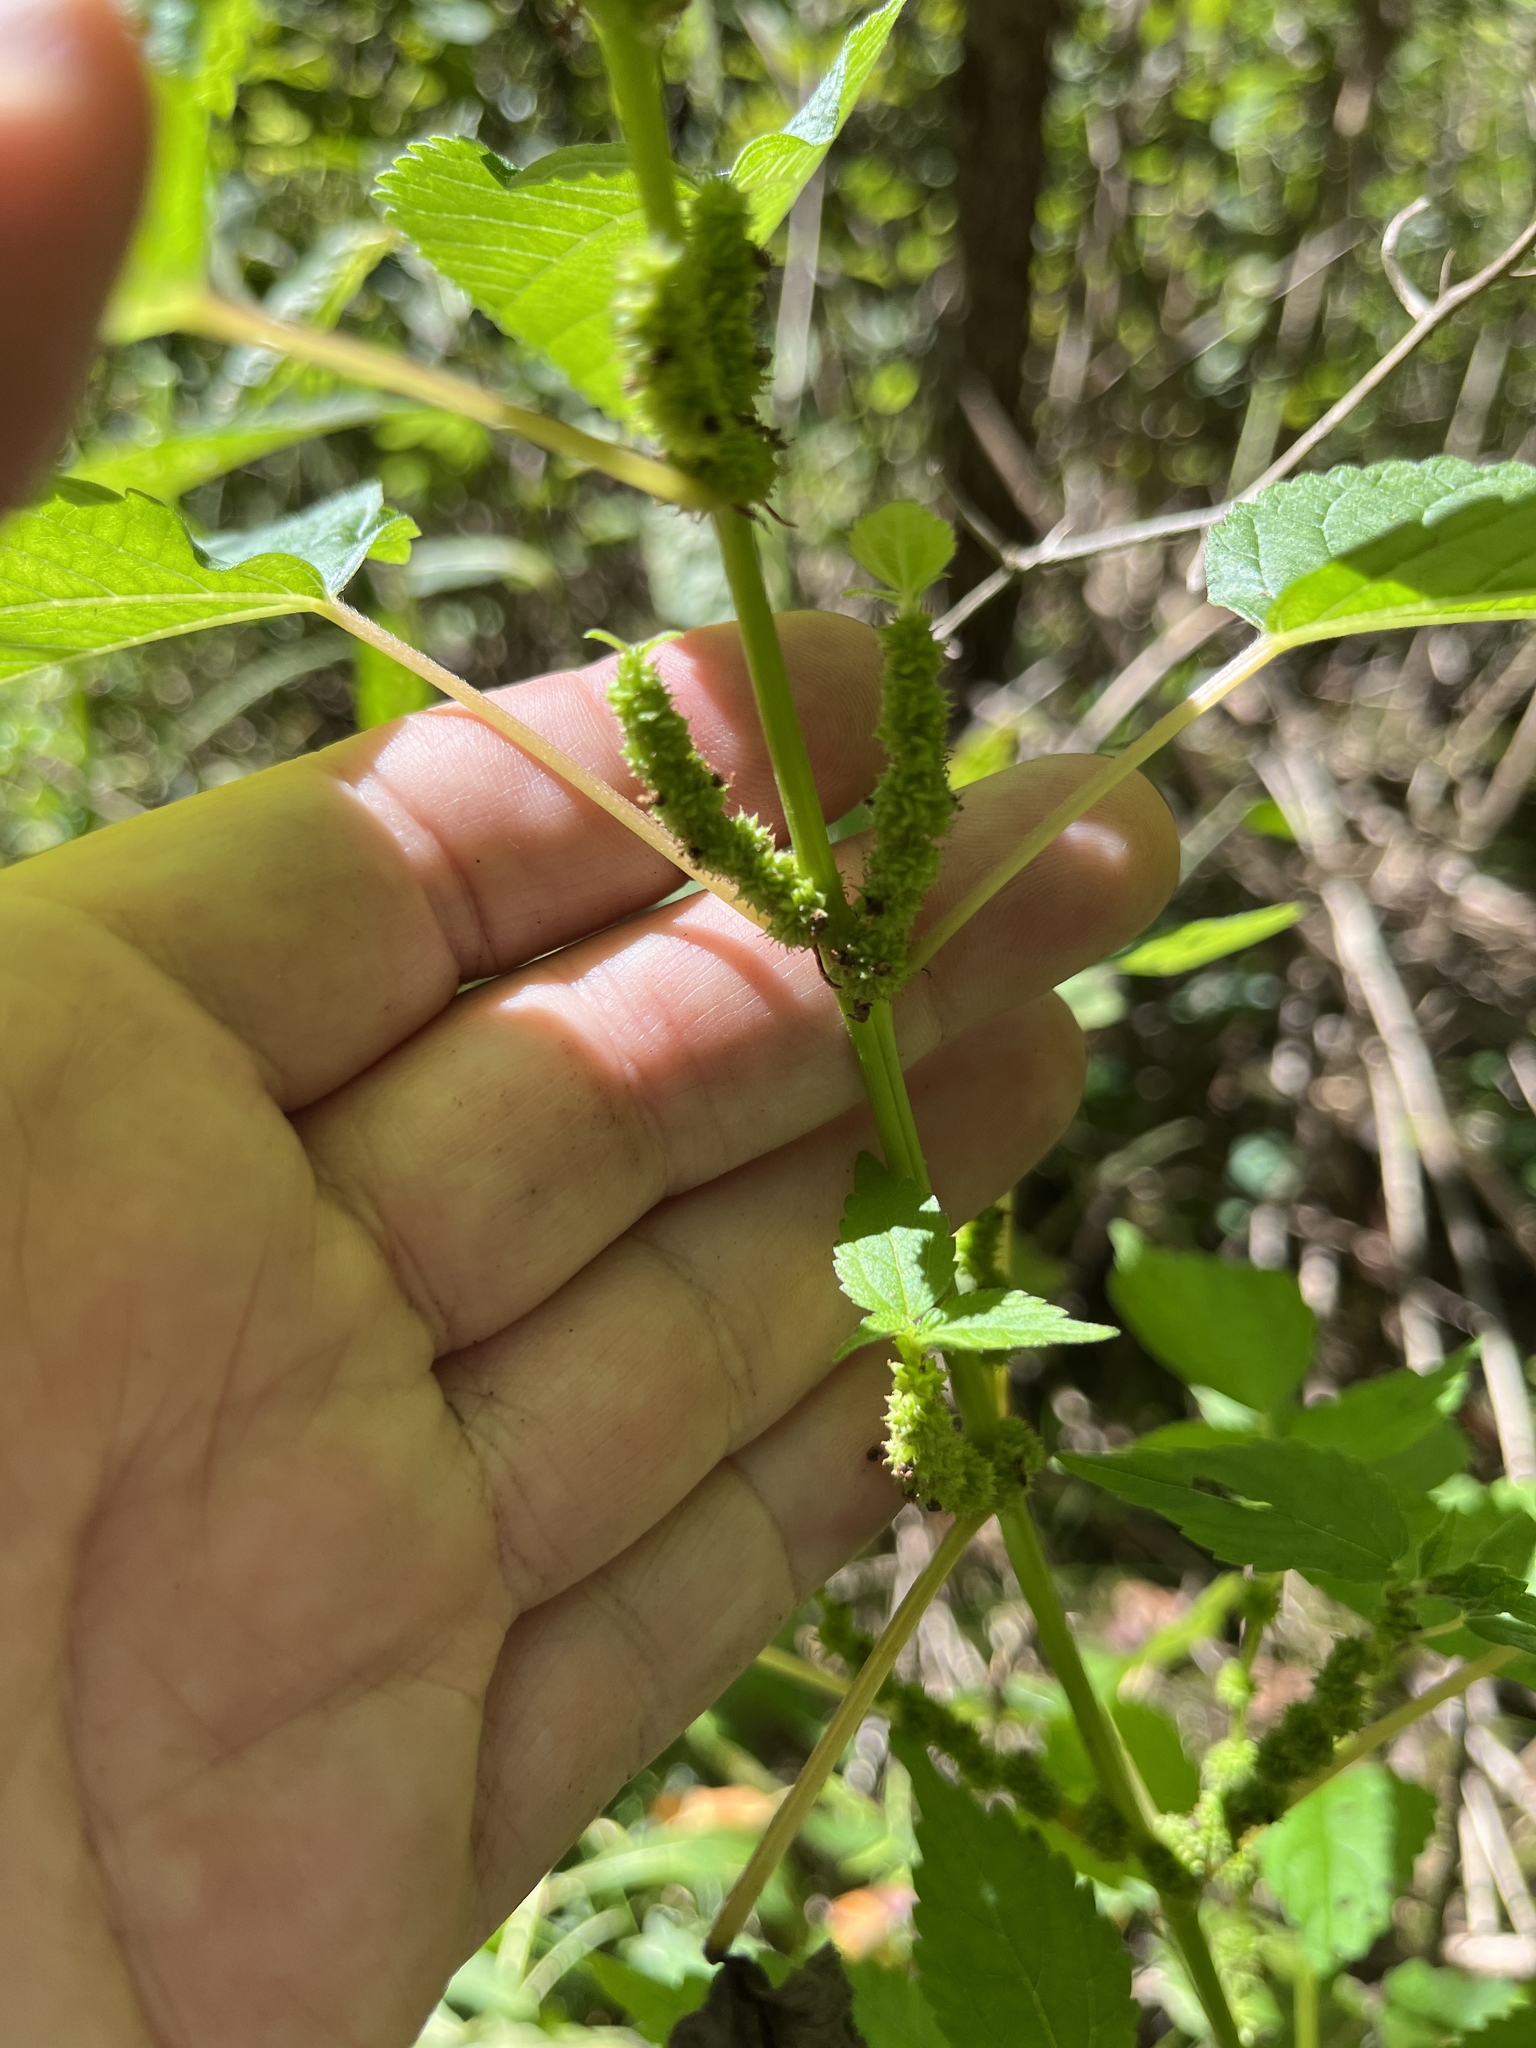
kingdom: Plantae
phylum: Tracheophyta
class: Magnoliopsida
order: Rosales
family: Urticaceae
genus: Boehmeria
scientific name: Boehmeria cylindrica
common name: Bog-hemp
